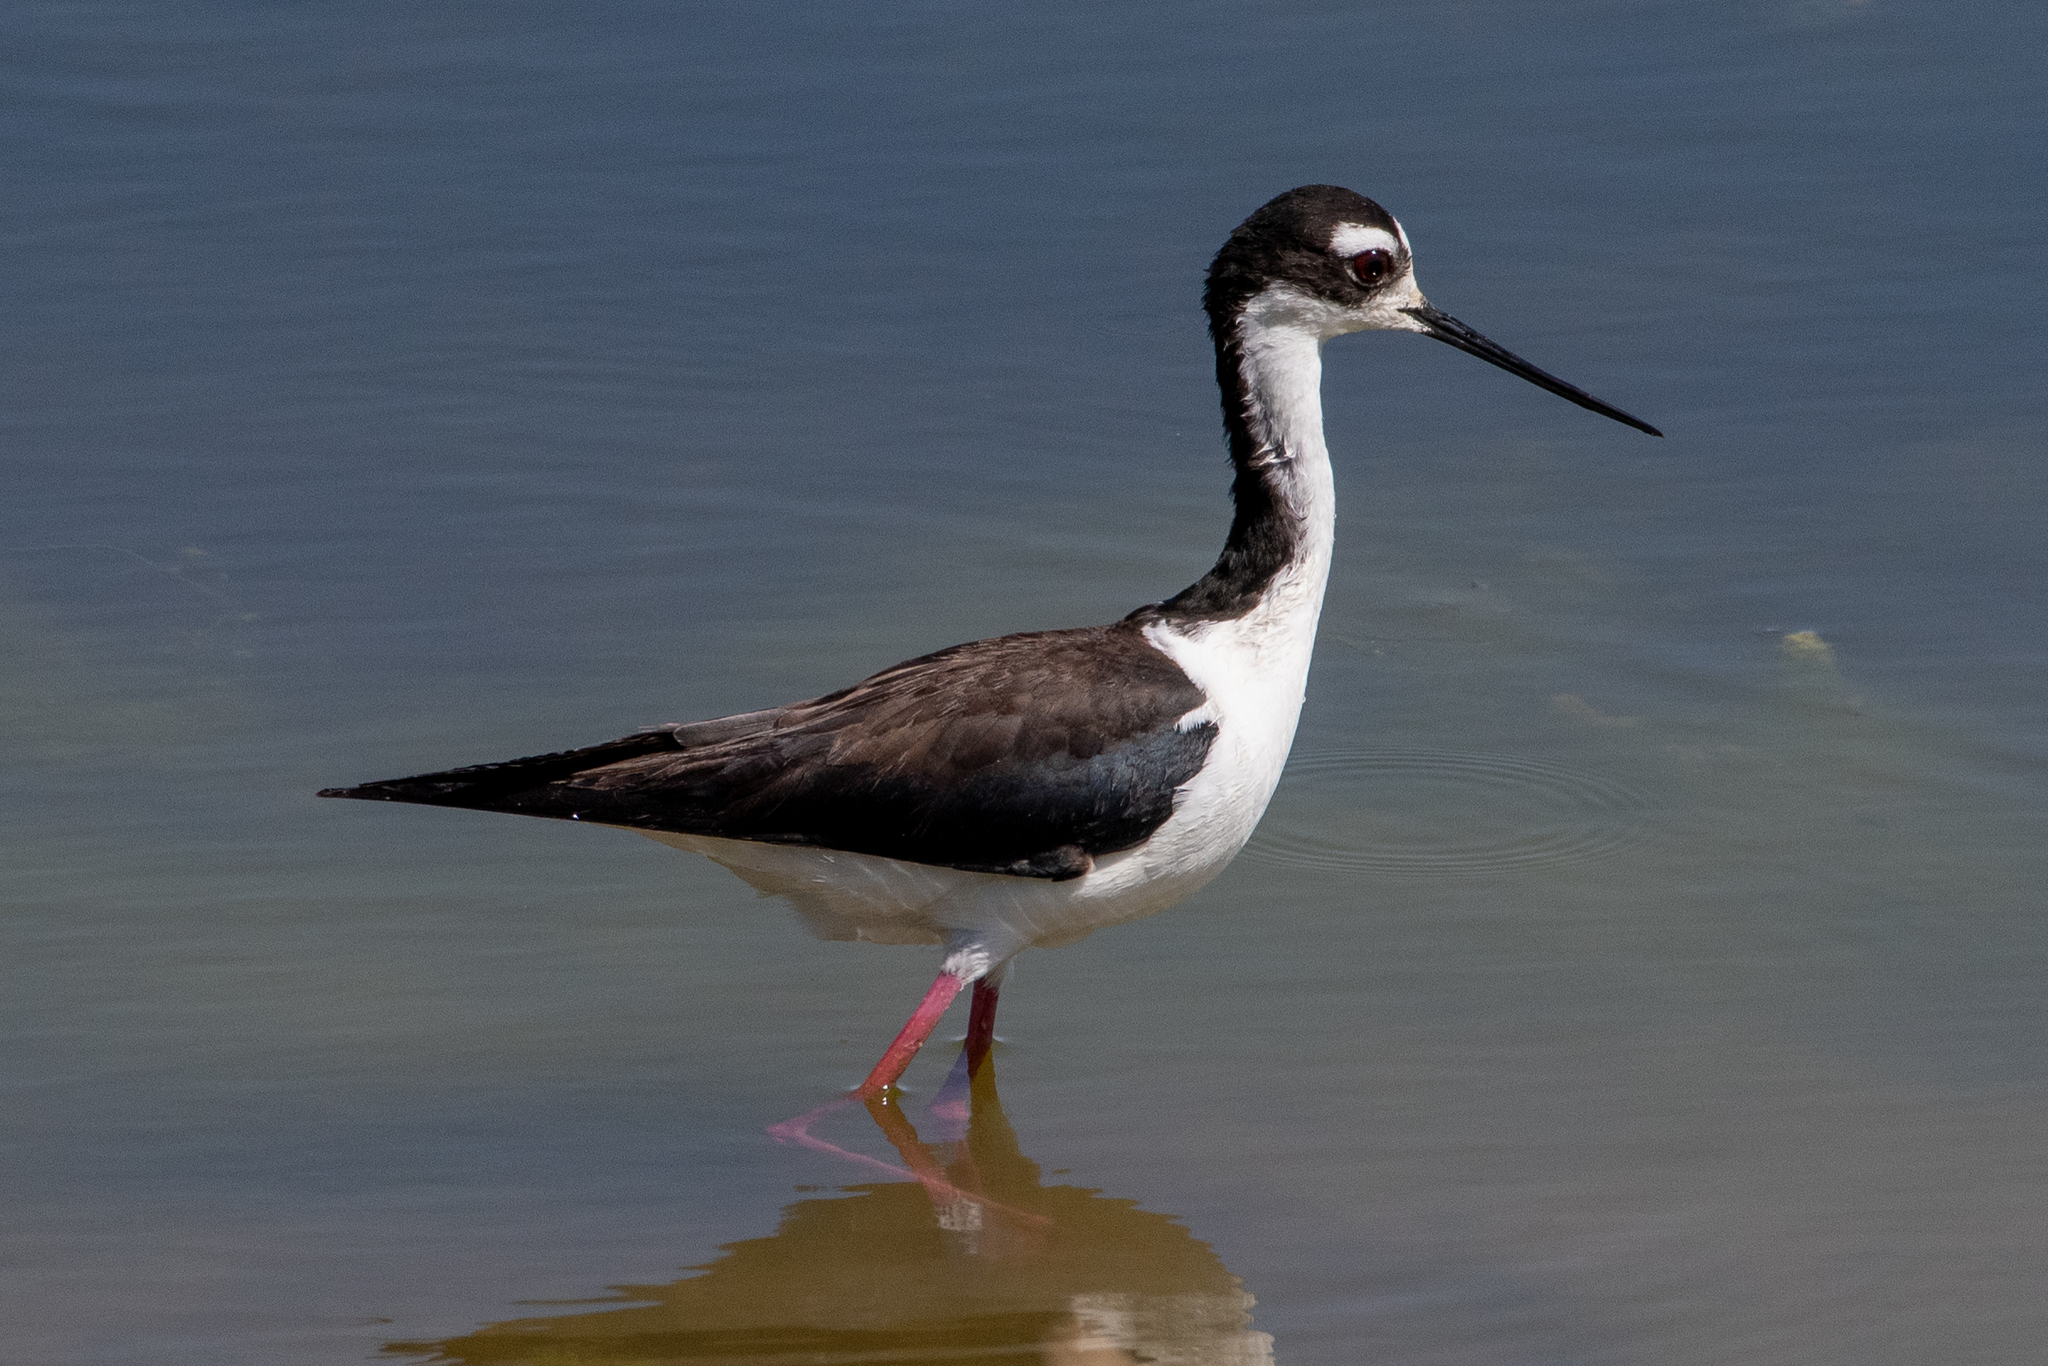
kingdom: Animalia
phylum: Chordata
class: Aves
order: Charadriiformes
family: Recurvirostridae
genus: Himantopus
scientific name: Himantopus mexicanus
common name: Black-necked stilt
